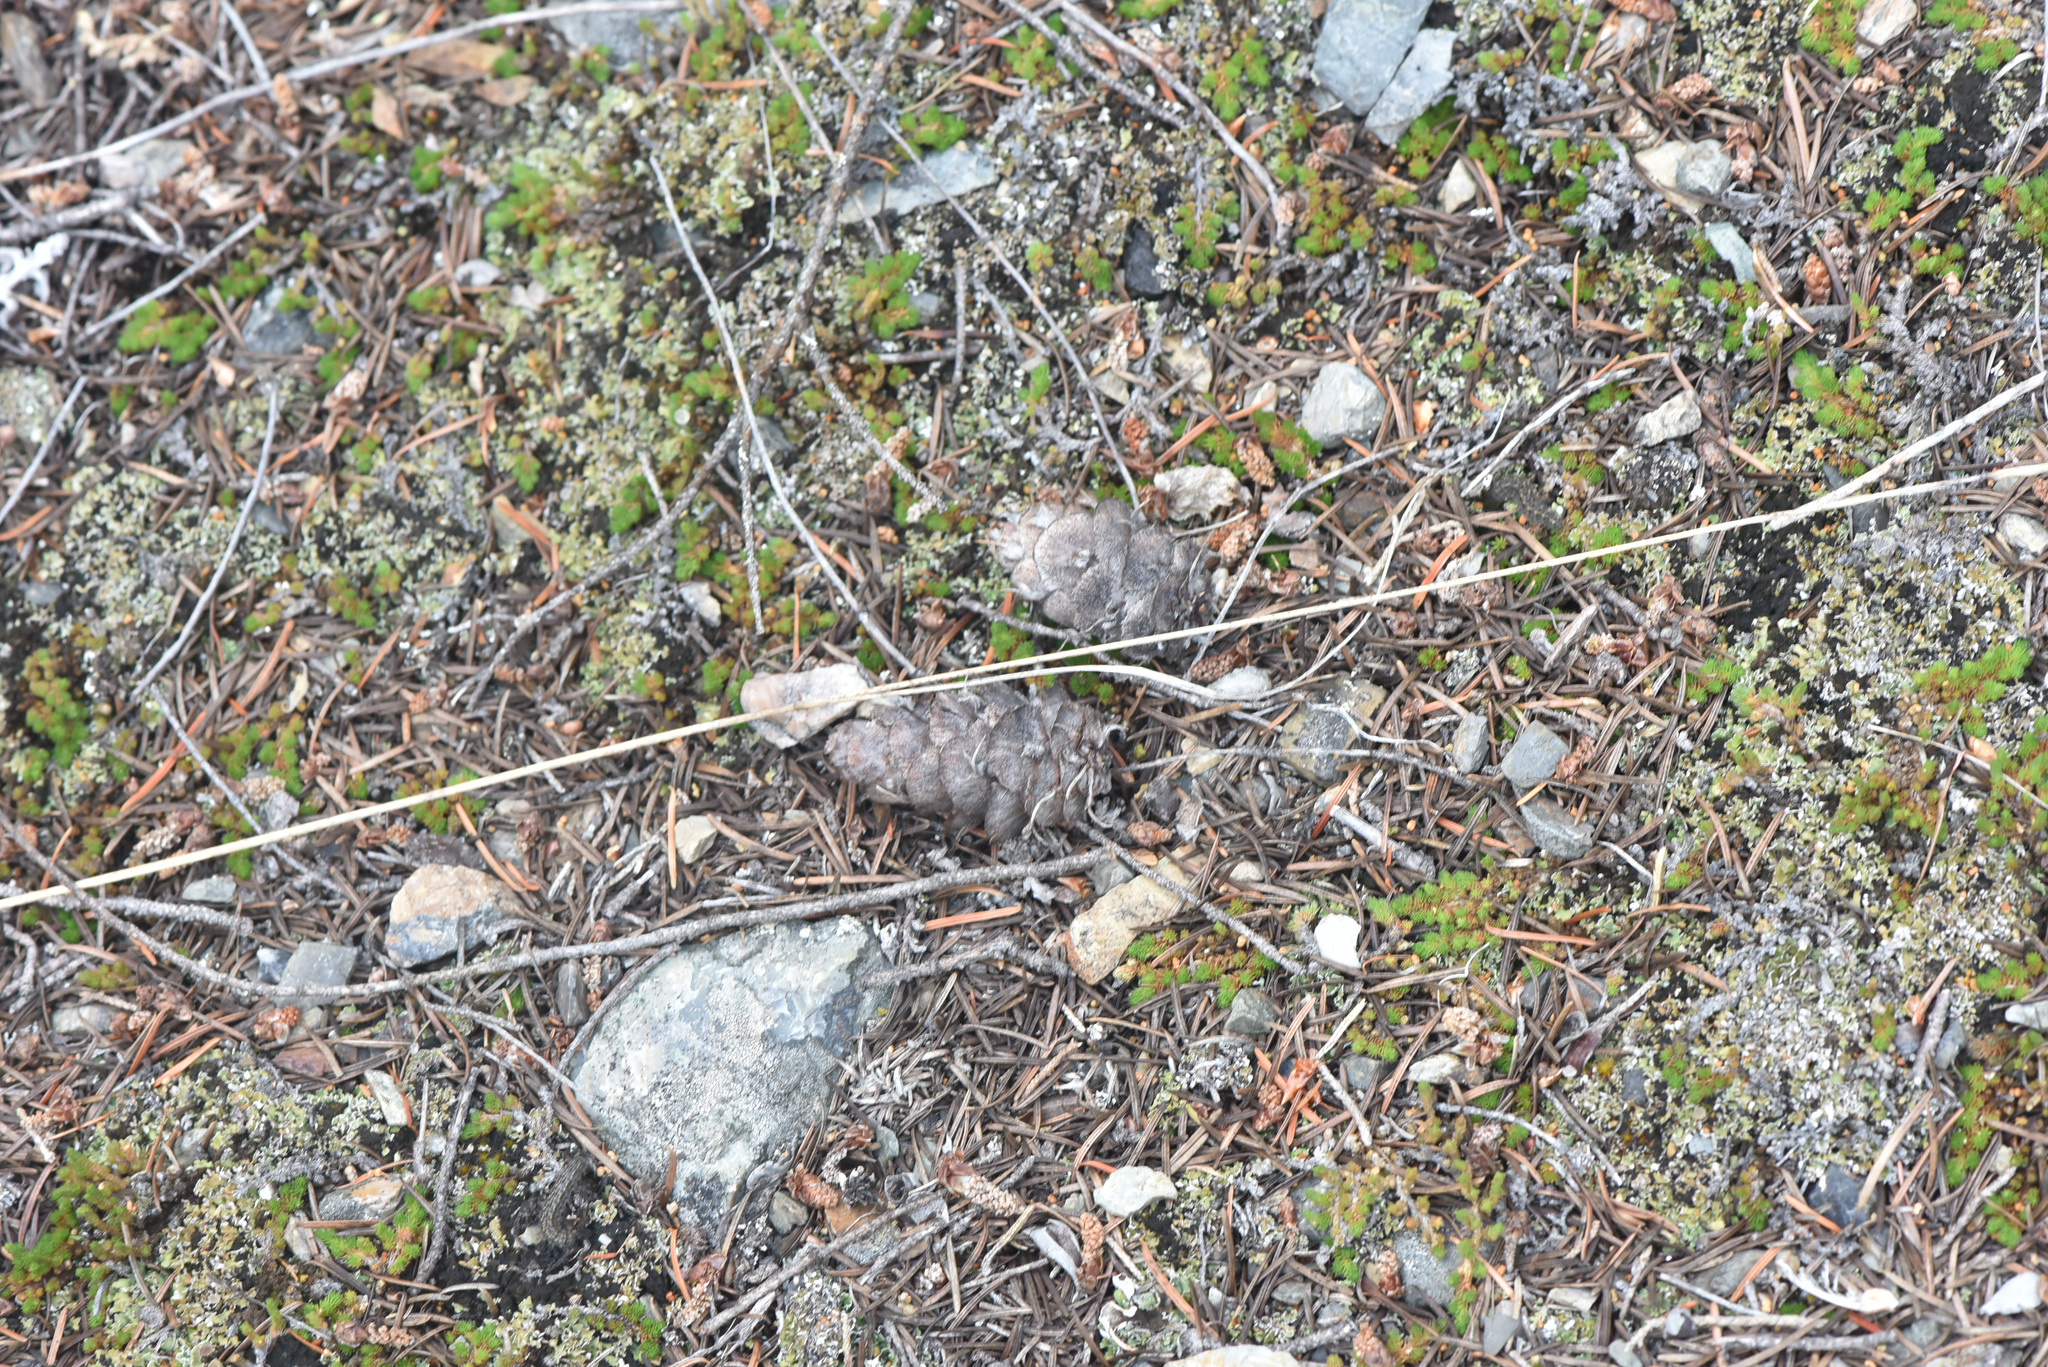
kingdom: Plantae
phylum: Tracheophyta
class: Pinopsida
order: Pinales
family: Pinaceae
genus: Pseudotsuga
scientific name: Pseudotsuga menziesii
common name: Douglas fir
